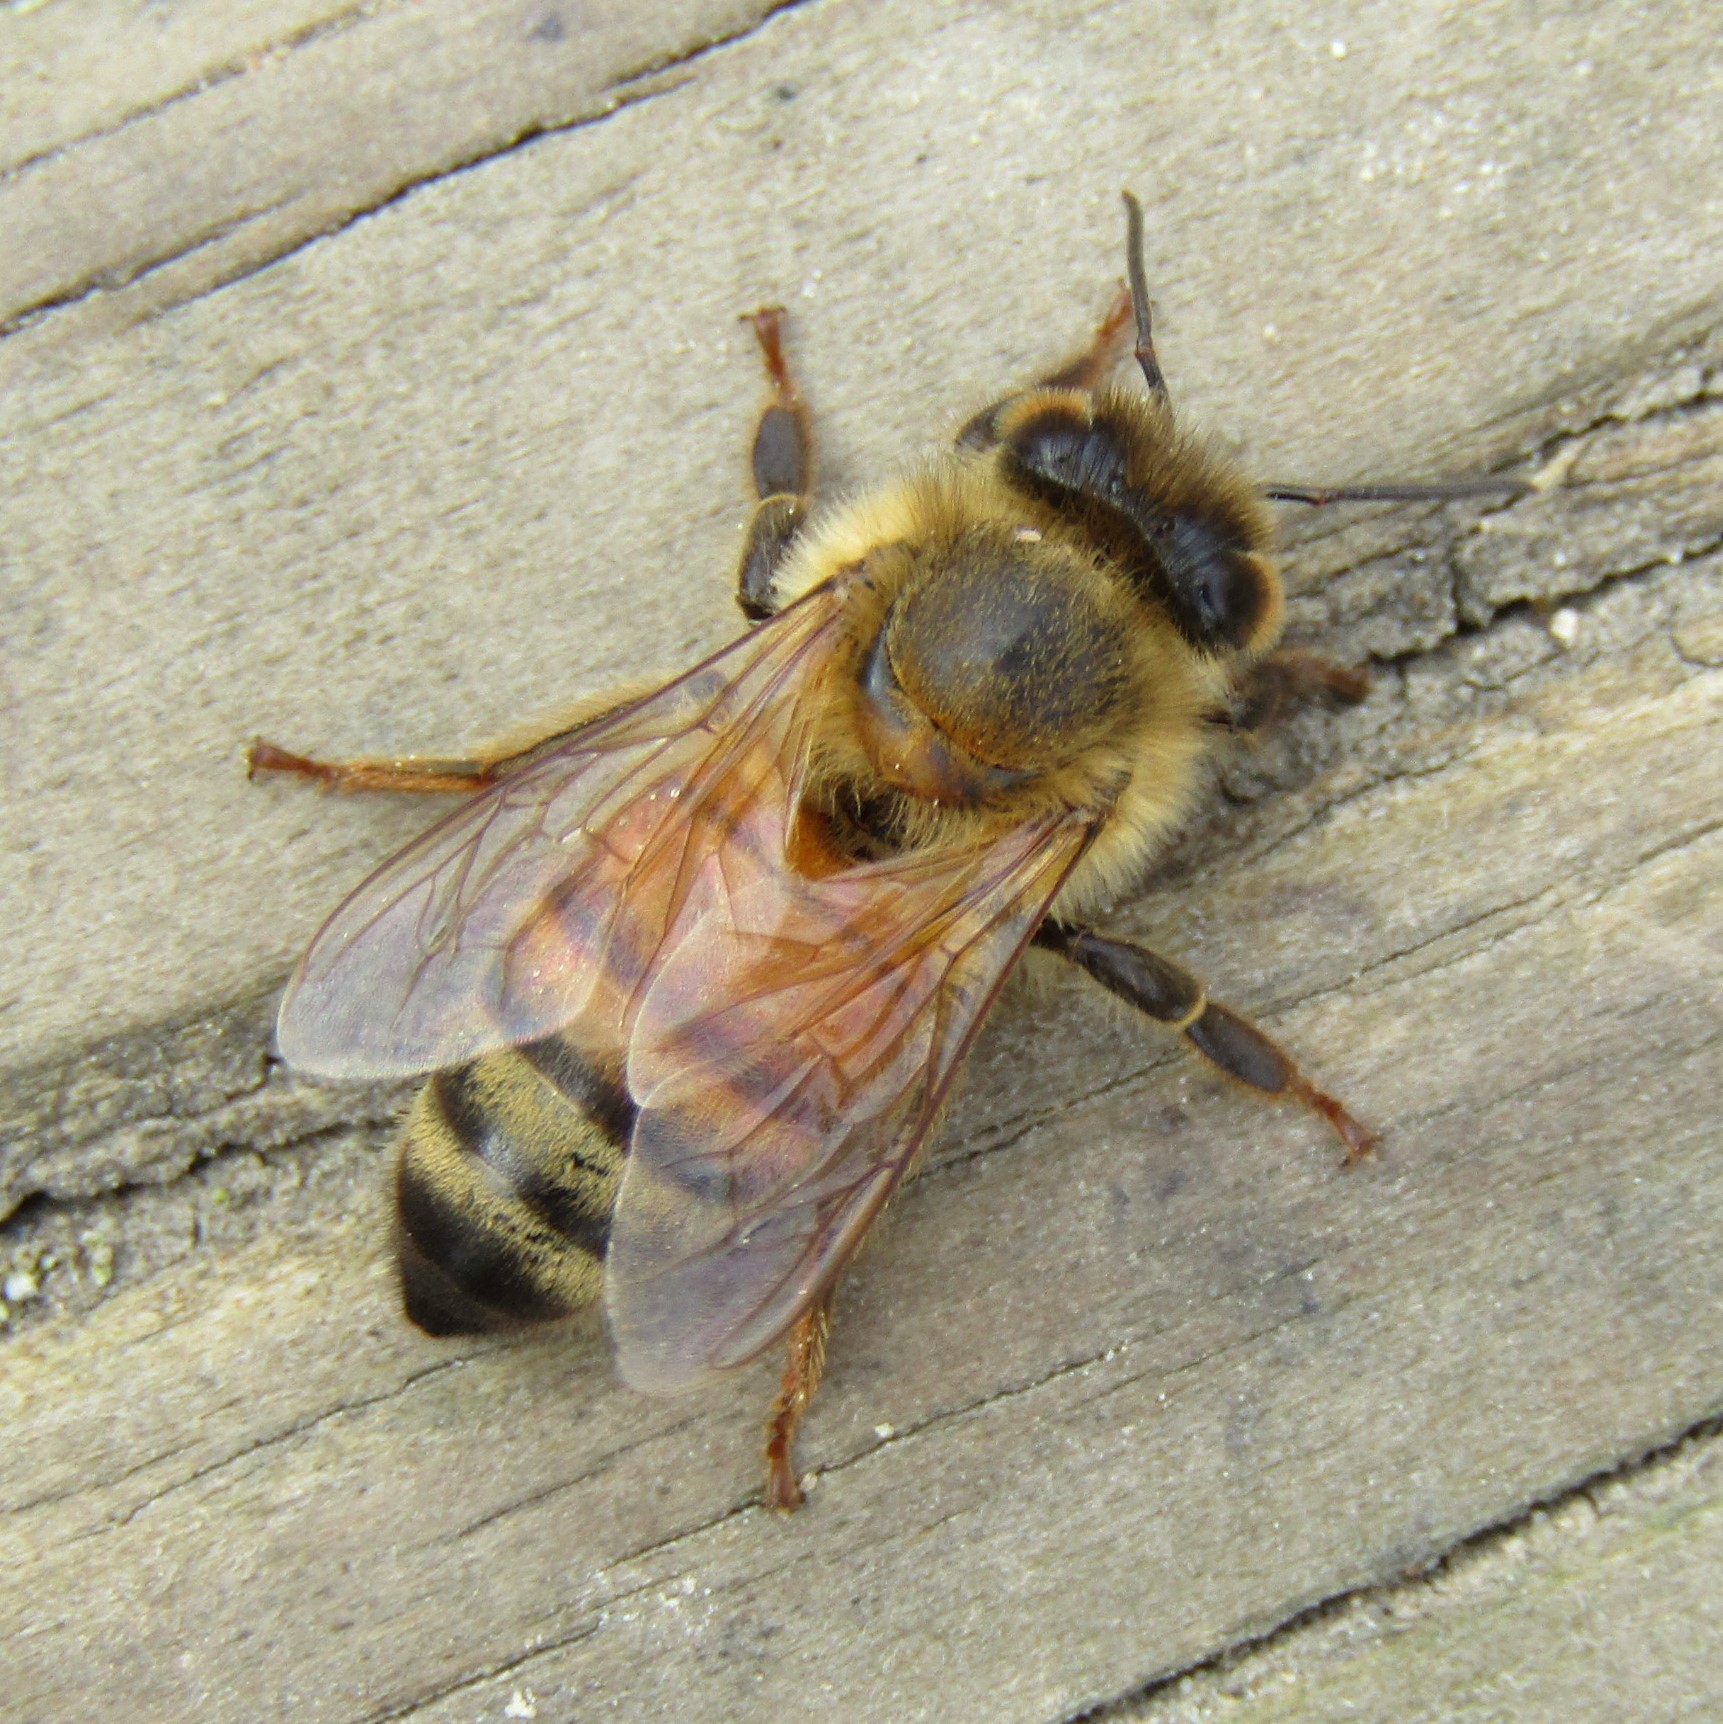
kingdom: Animalia
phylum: Arthropoda
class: Insecta
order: Hymenoptera
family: Apidae
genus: Apis
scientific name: Apis mellifera
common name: Honey bee
